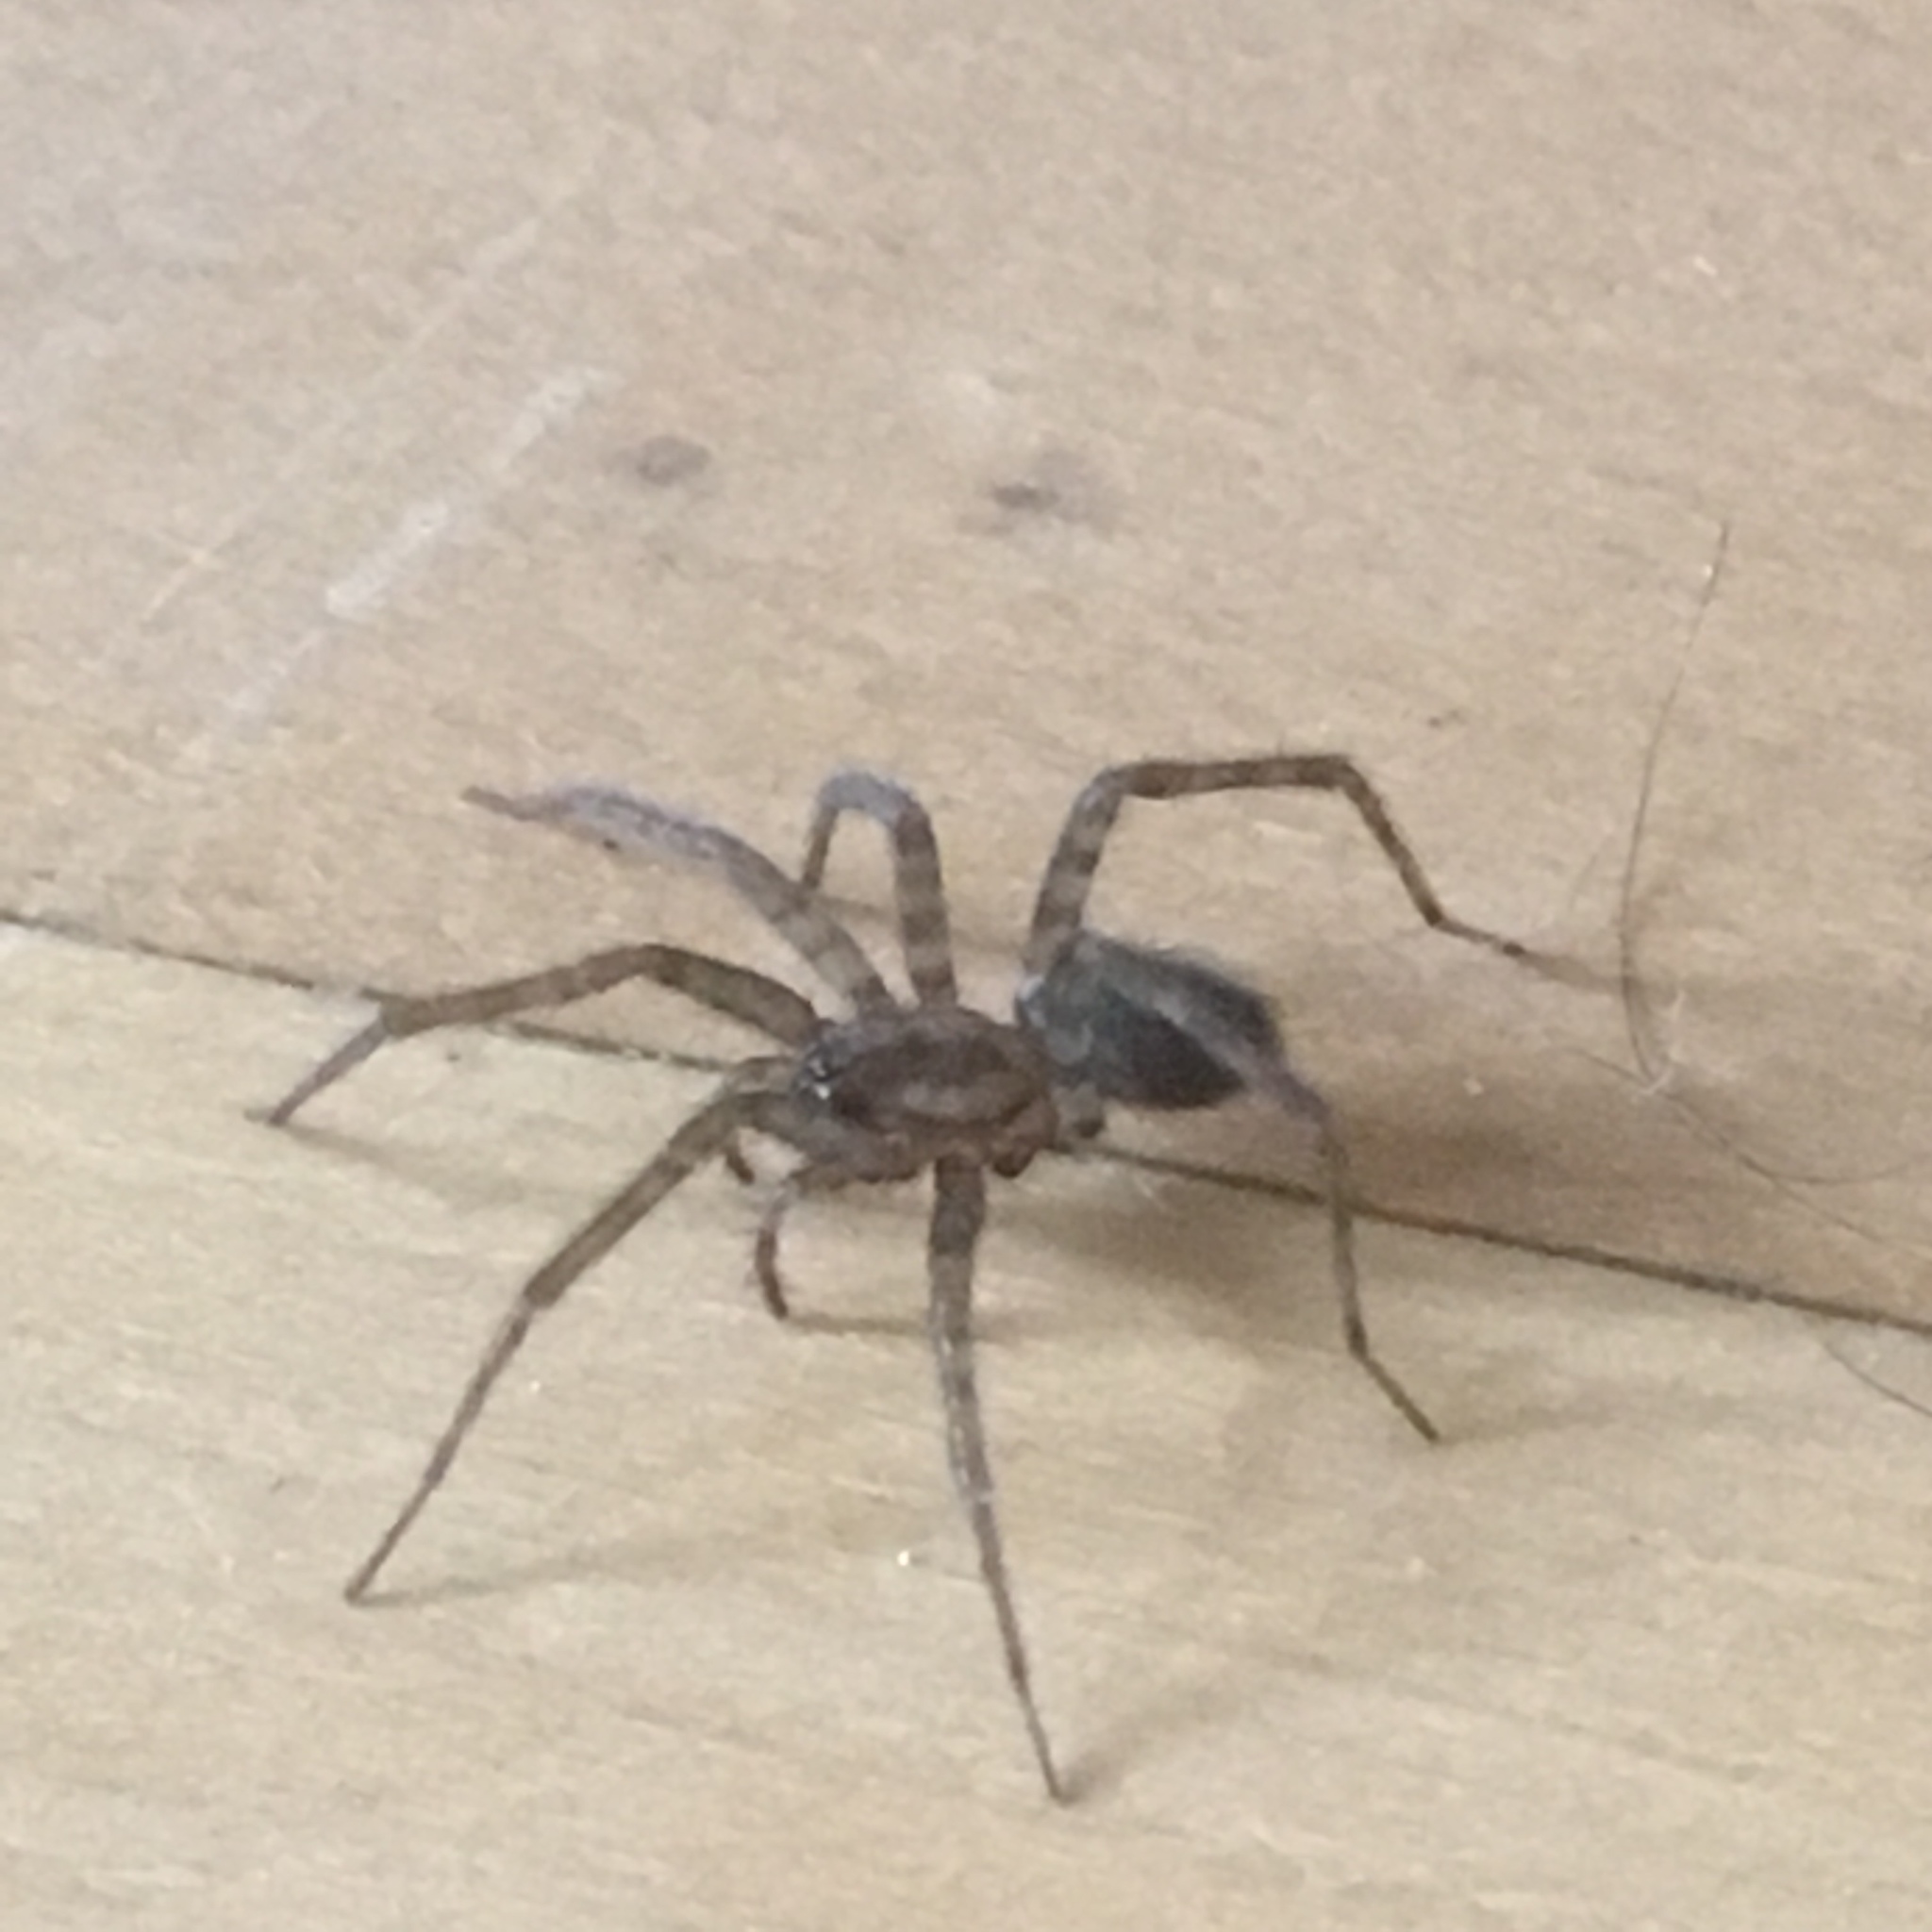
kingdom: Animalia
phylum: Arthropoda
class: Arachnida
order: Araneae
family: Agelenidae
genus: Tegenaria
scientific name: Tegenaria domestica
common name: Barn funnel weaver
